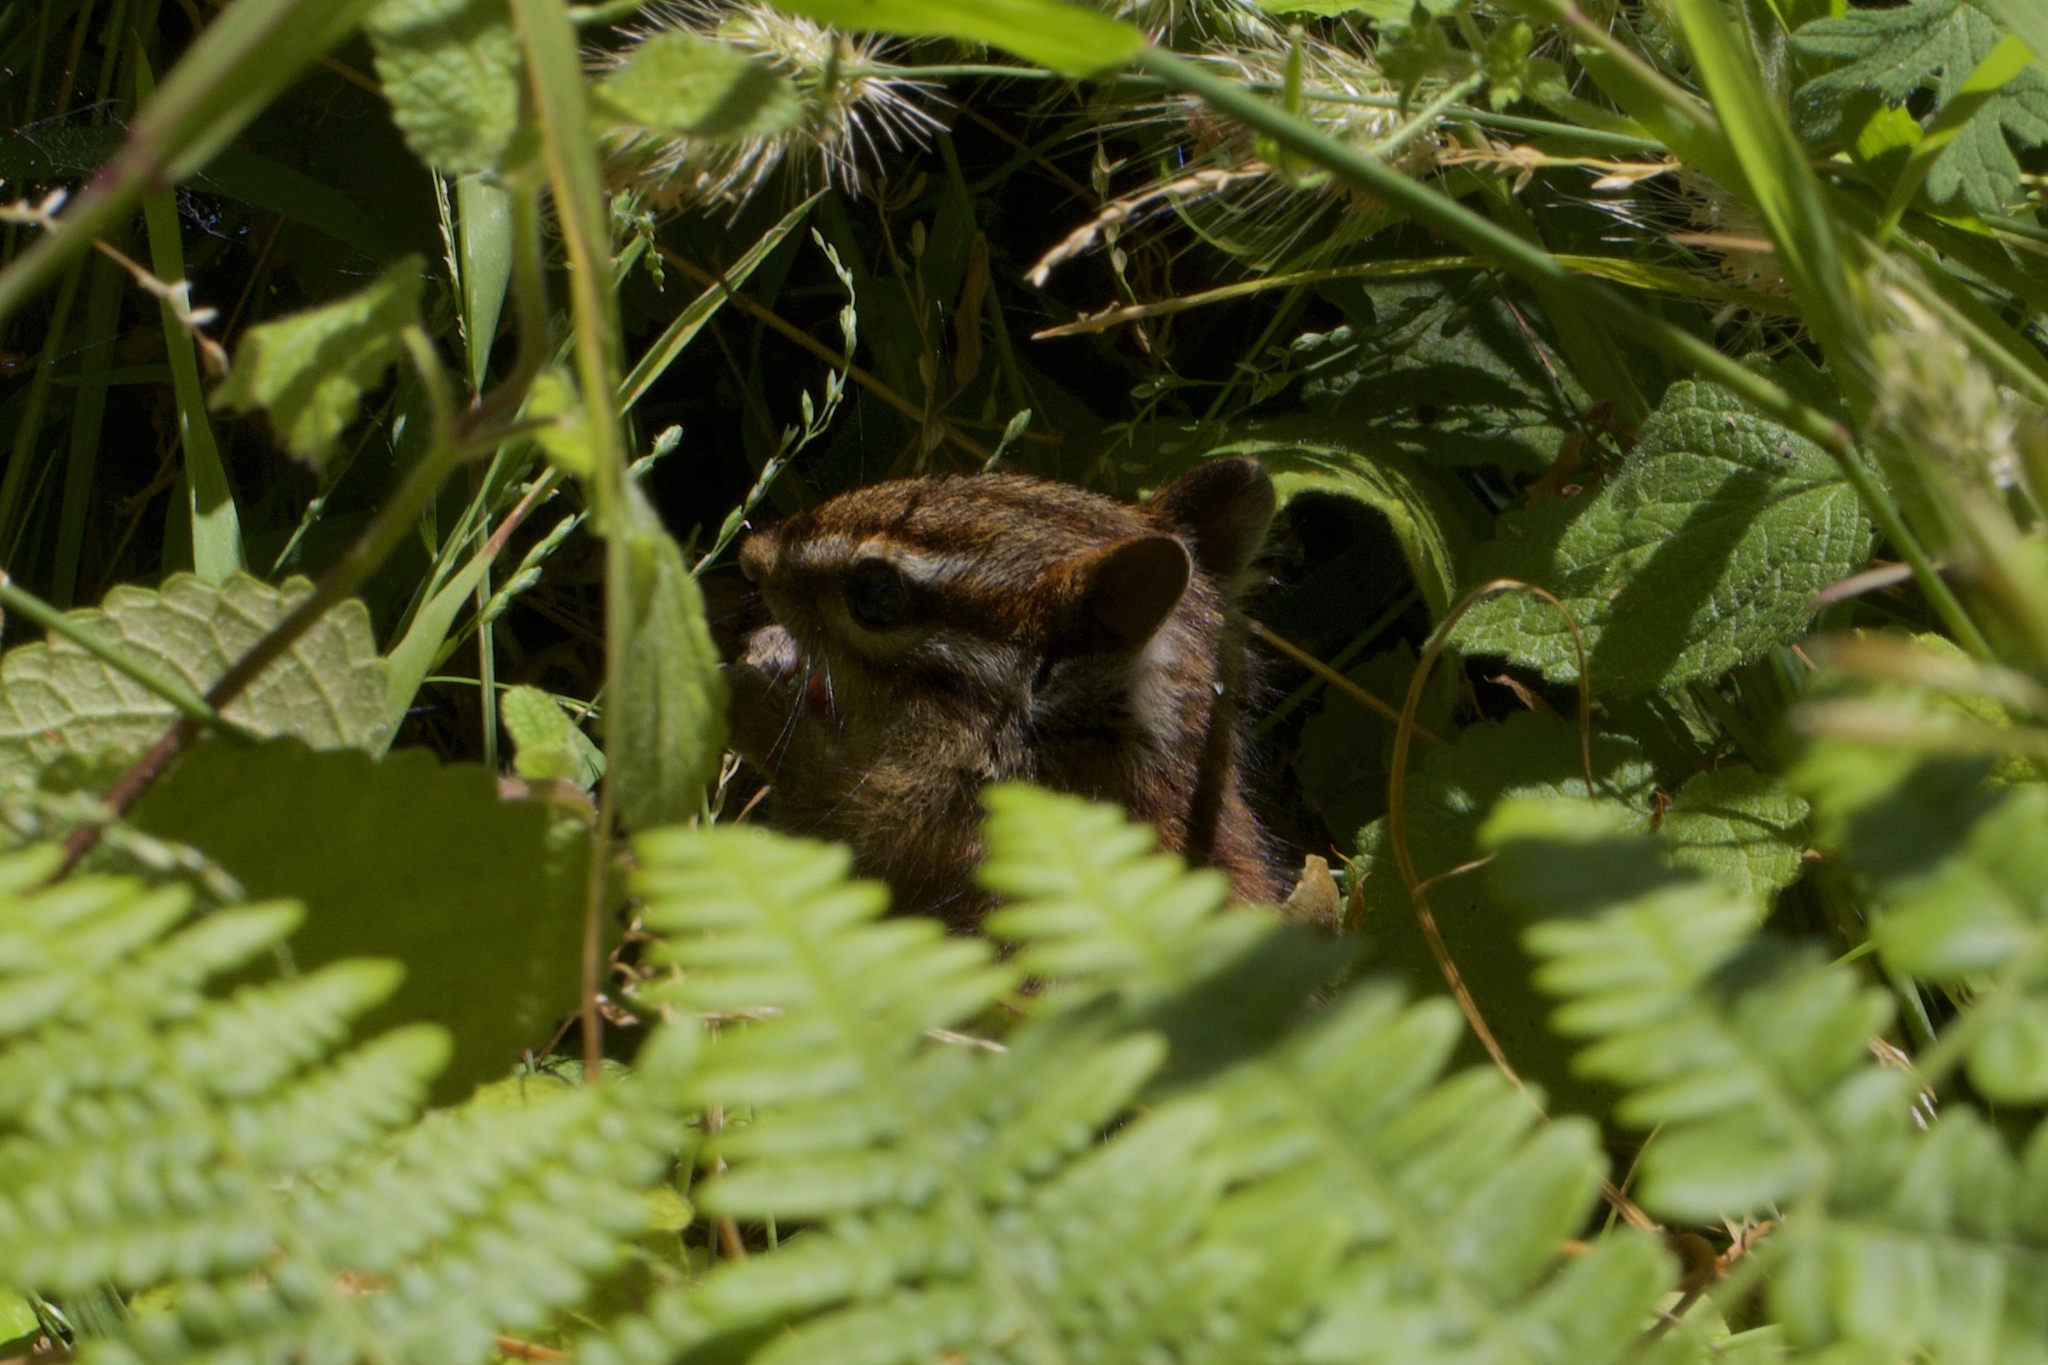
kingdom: Animalia
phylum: Chordata
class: Mammalia
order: Rodentia
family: Sciuridae
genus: Tamias
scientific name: Tamias sonomae
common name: Sonoma chipmunk
